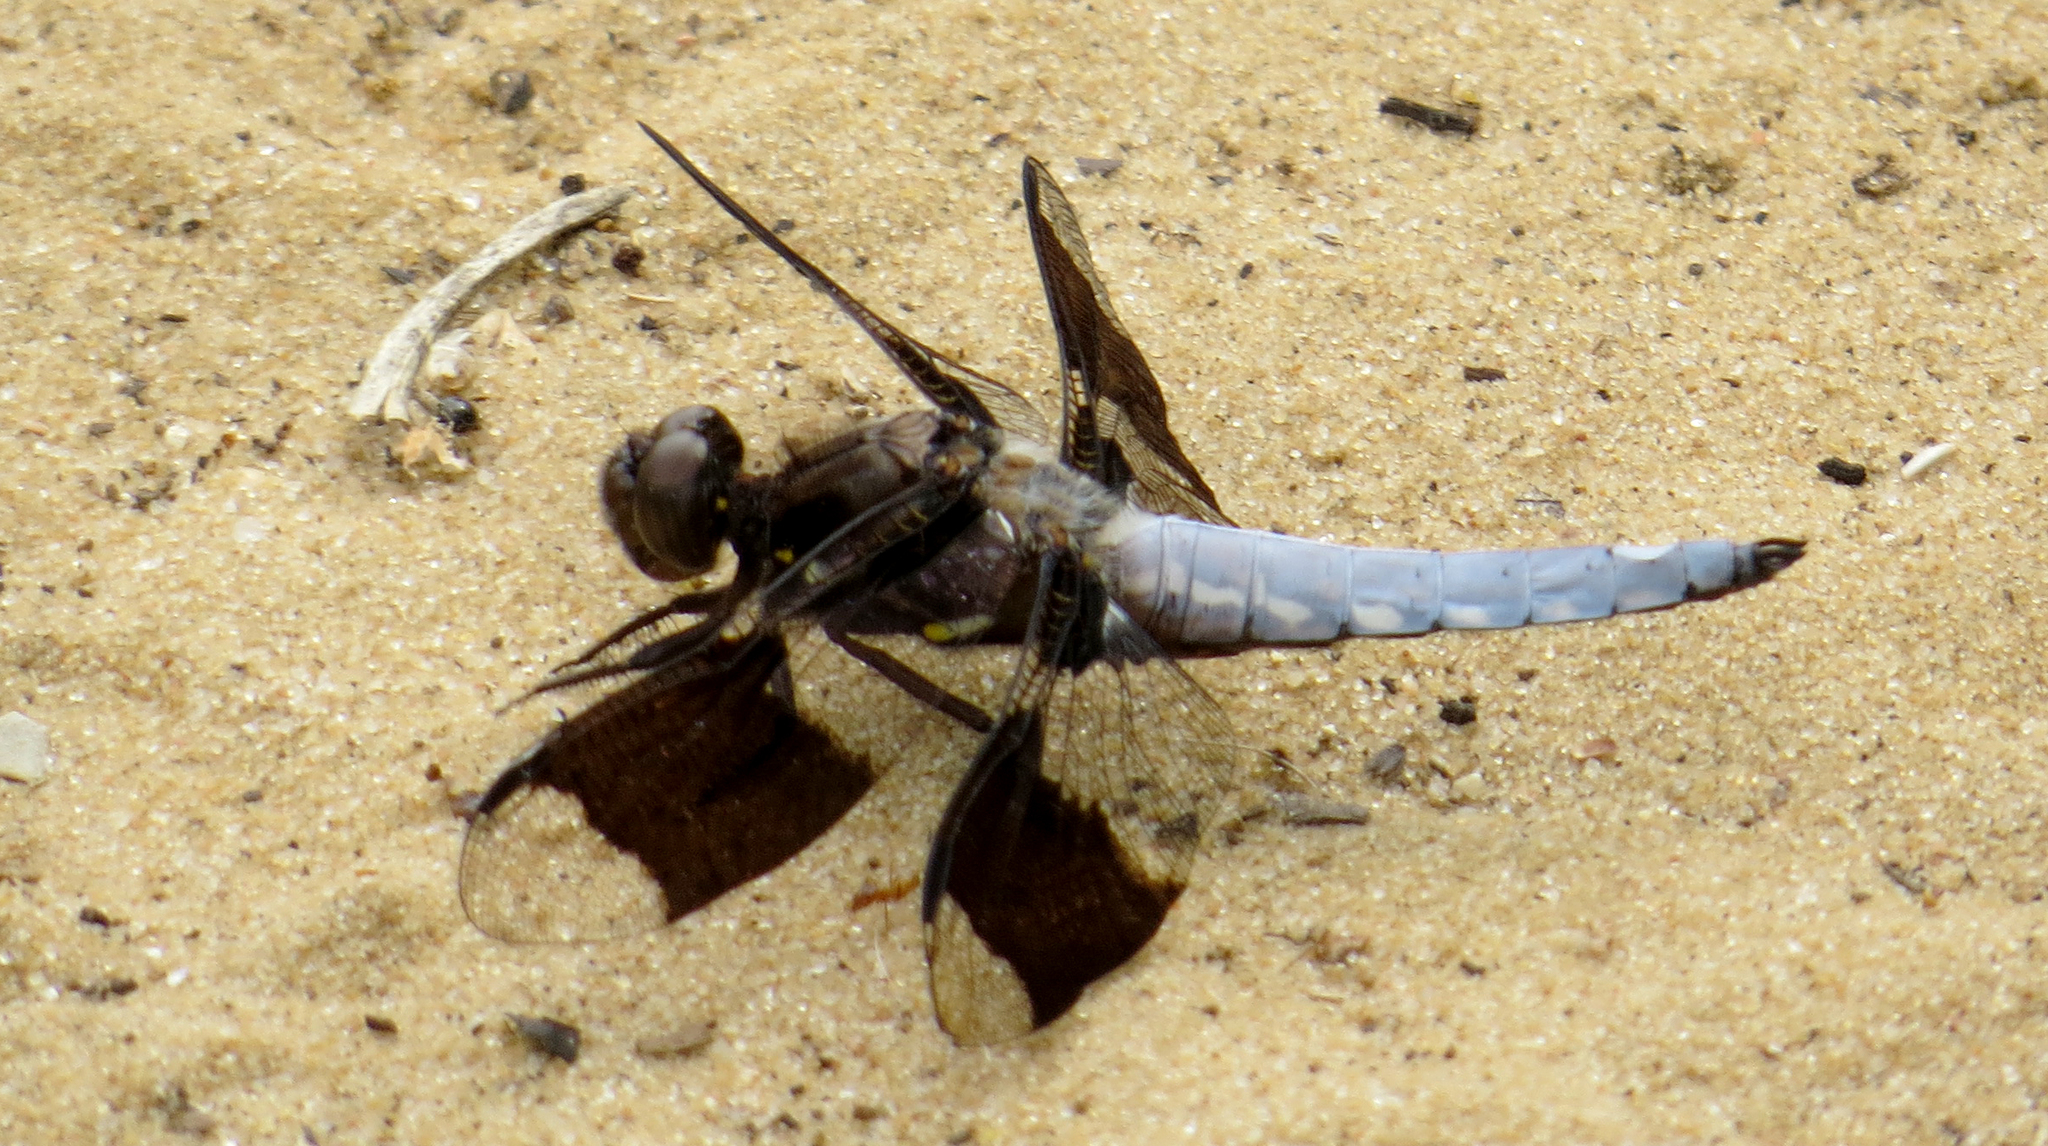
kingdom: Animalia
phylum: Arthropoda
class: Insecta
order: Odonata
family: Libellulidae
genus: Plathemis
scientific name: Plathemis lydia
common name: Common whitetail
